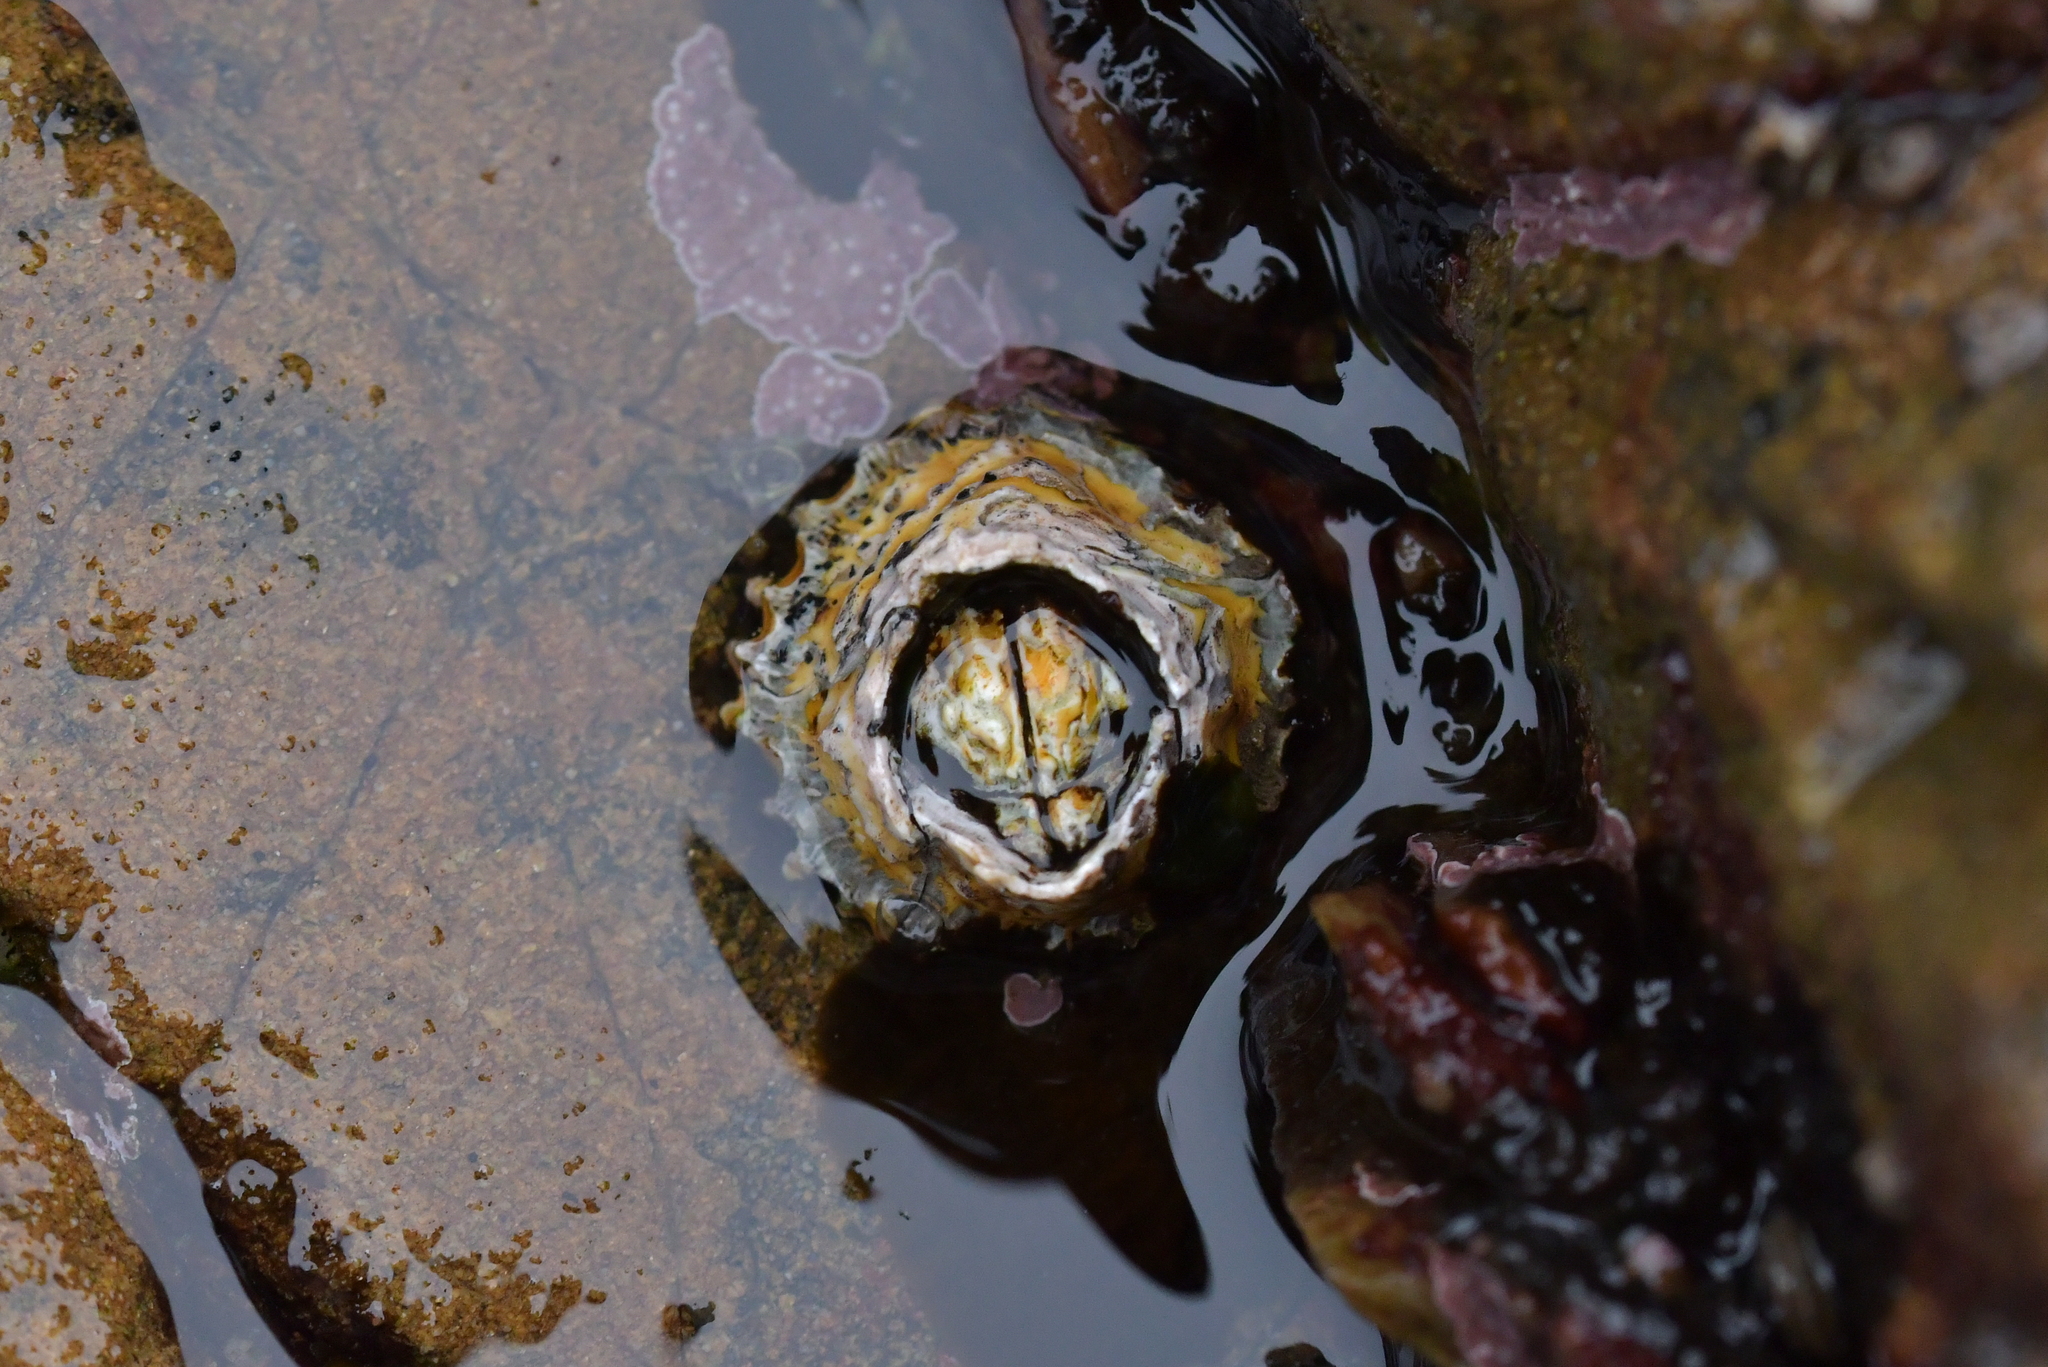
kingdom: Animalia
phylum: Arthropoda
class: Maxillopoda
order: Sessilia
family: Tetraclitidae
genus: Epopella
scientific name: Epopella plicata
